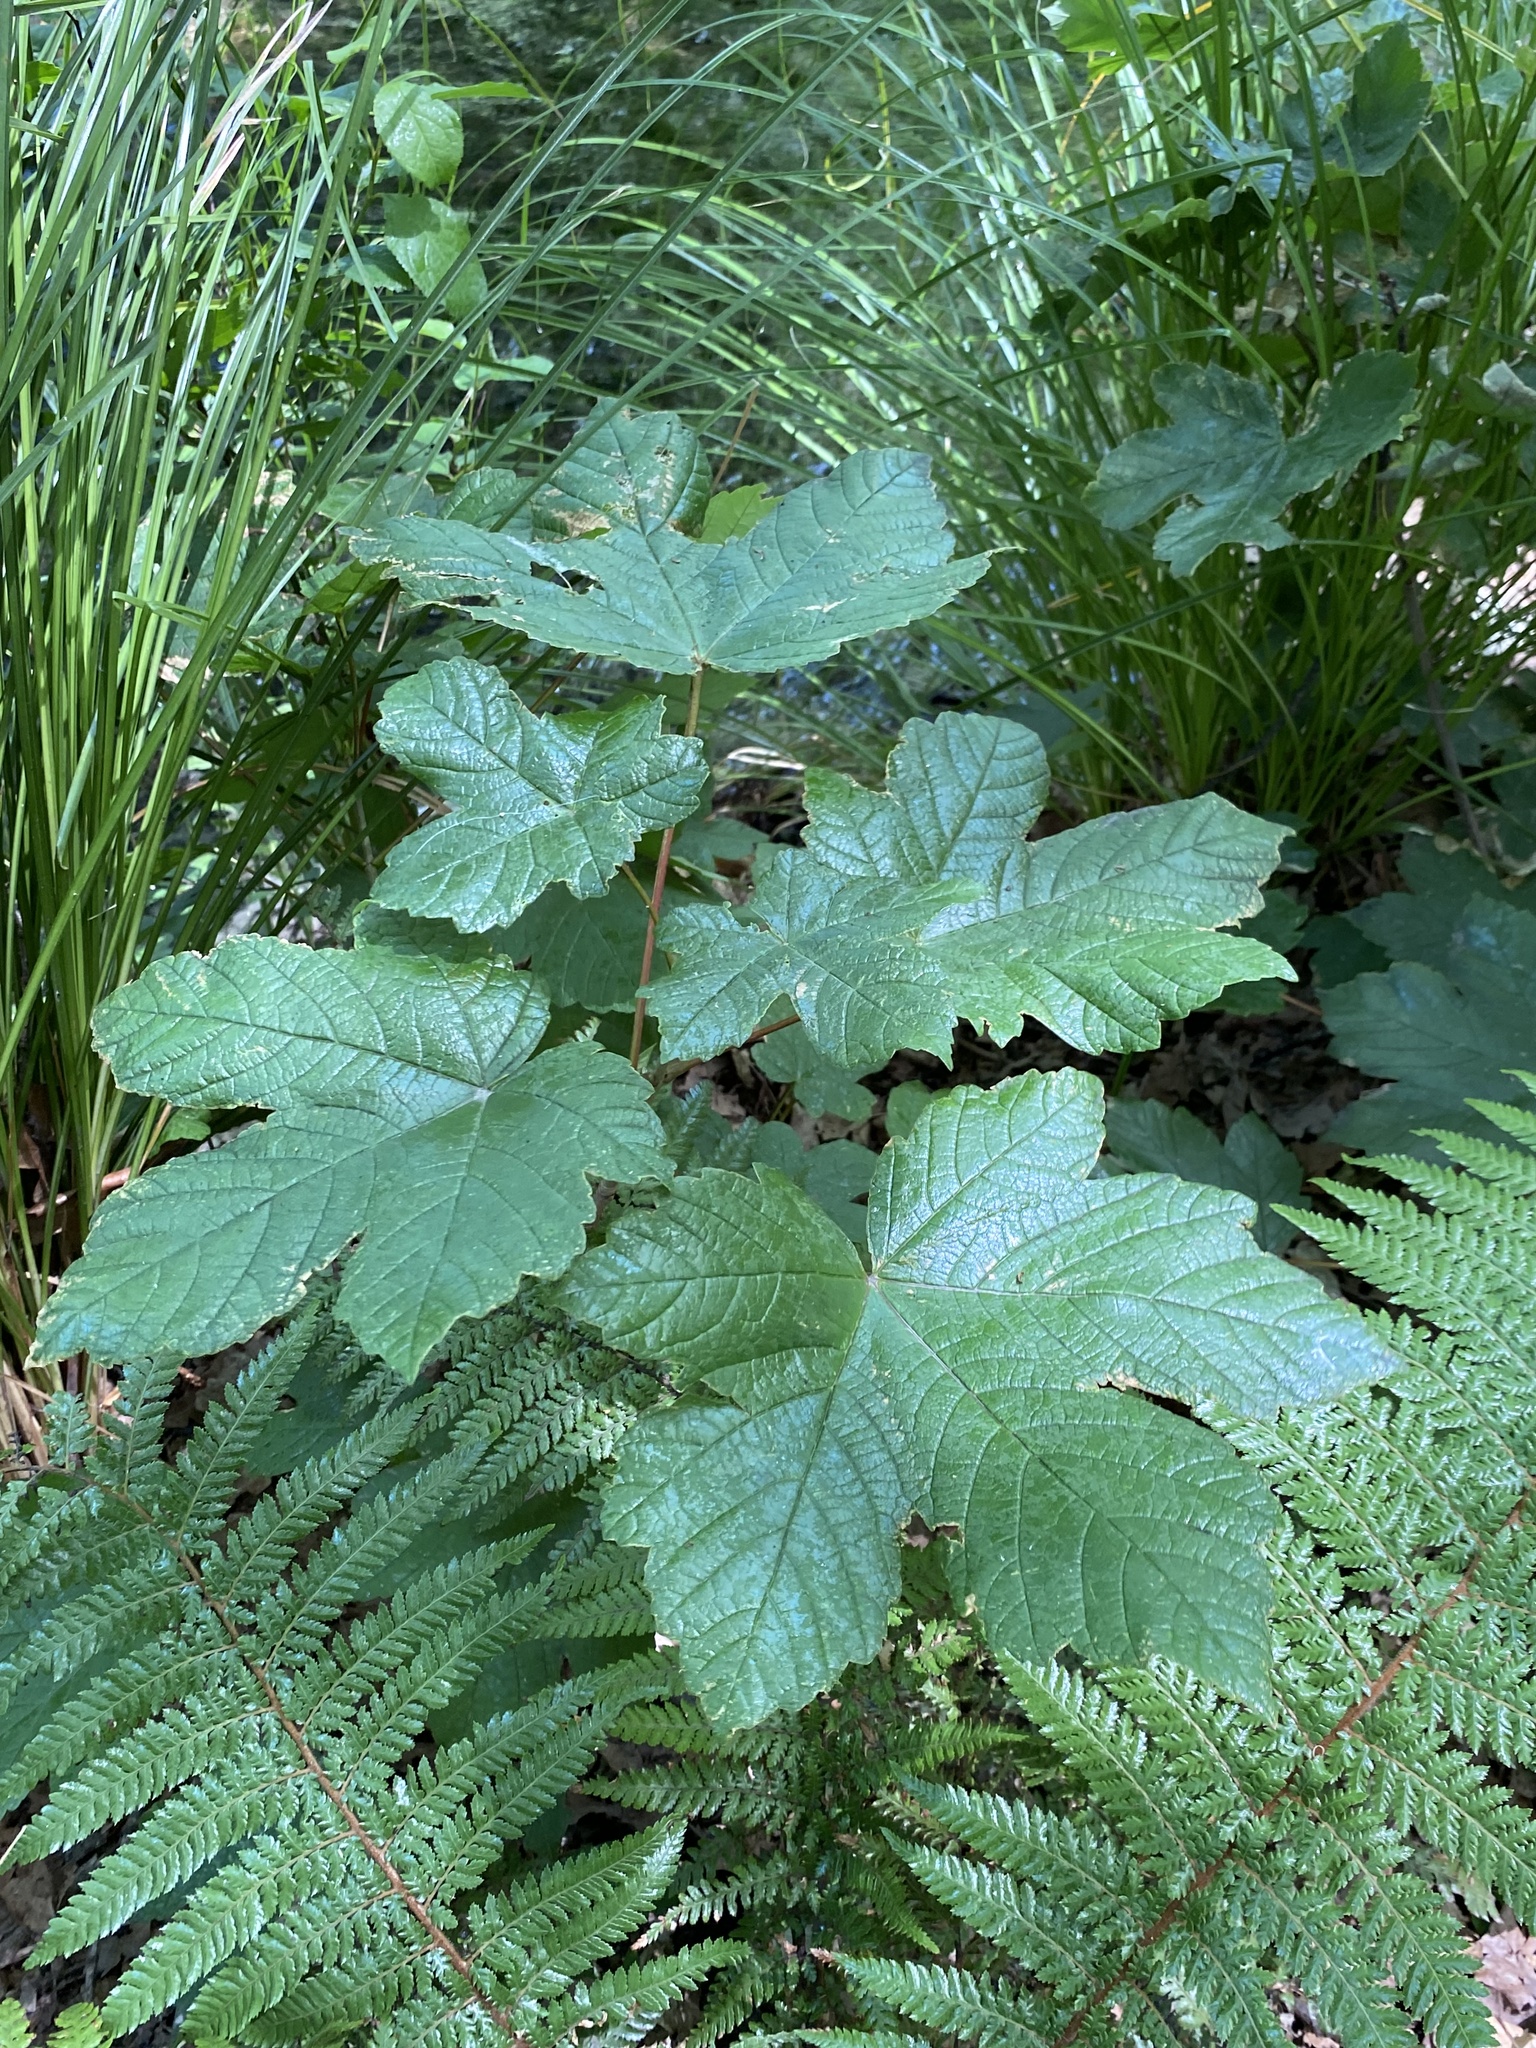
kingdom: Plantae
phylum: Tracheophyta
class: Magnoliopsida
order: Sapindales
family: Sapindaceae
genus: Acer
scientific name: Acer pseudoplatanus
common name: Sycamore
